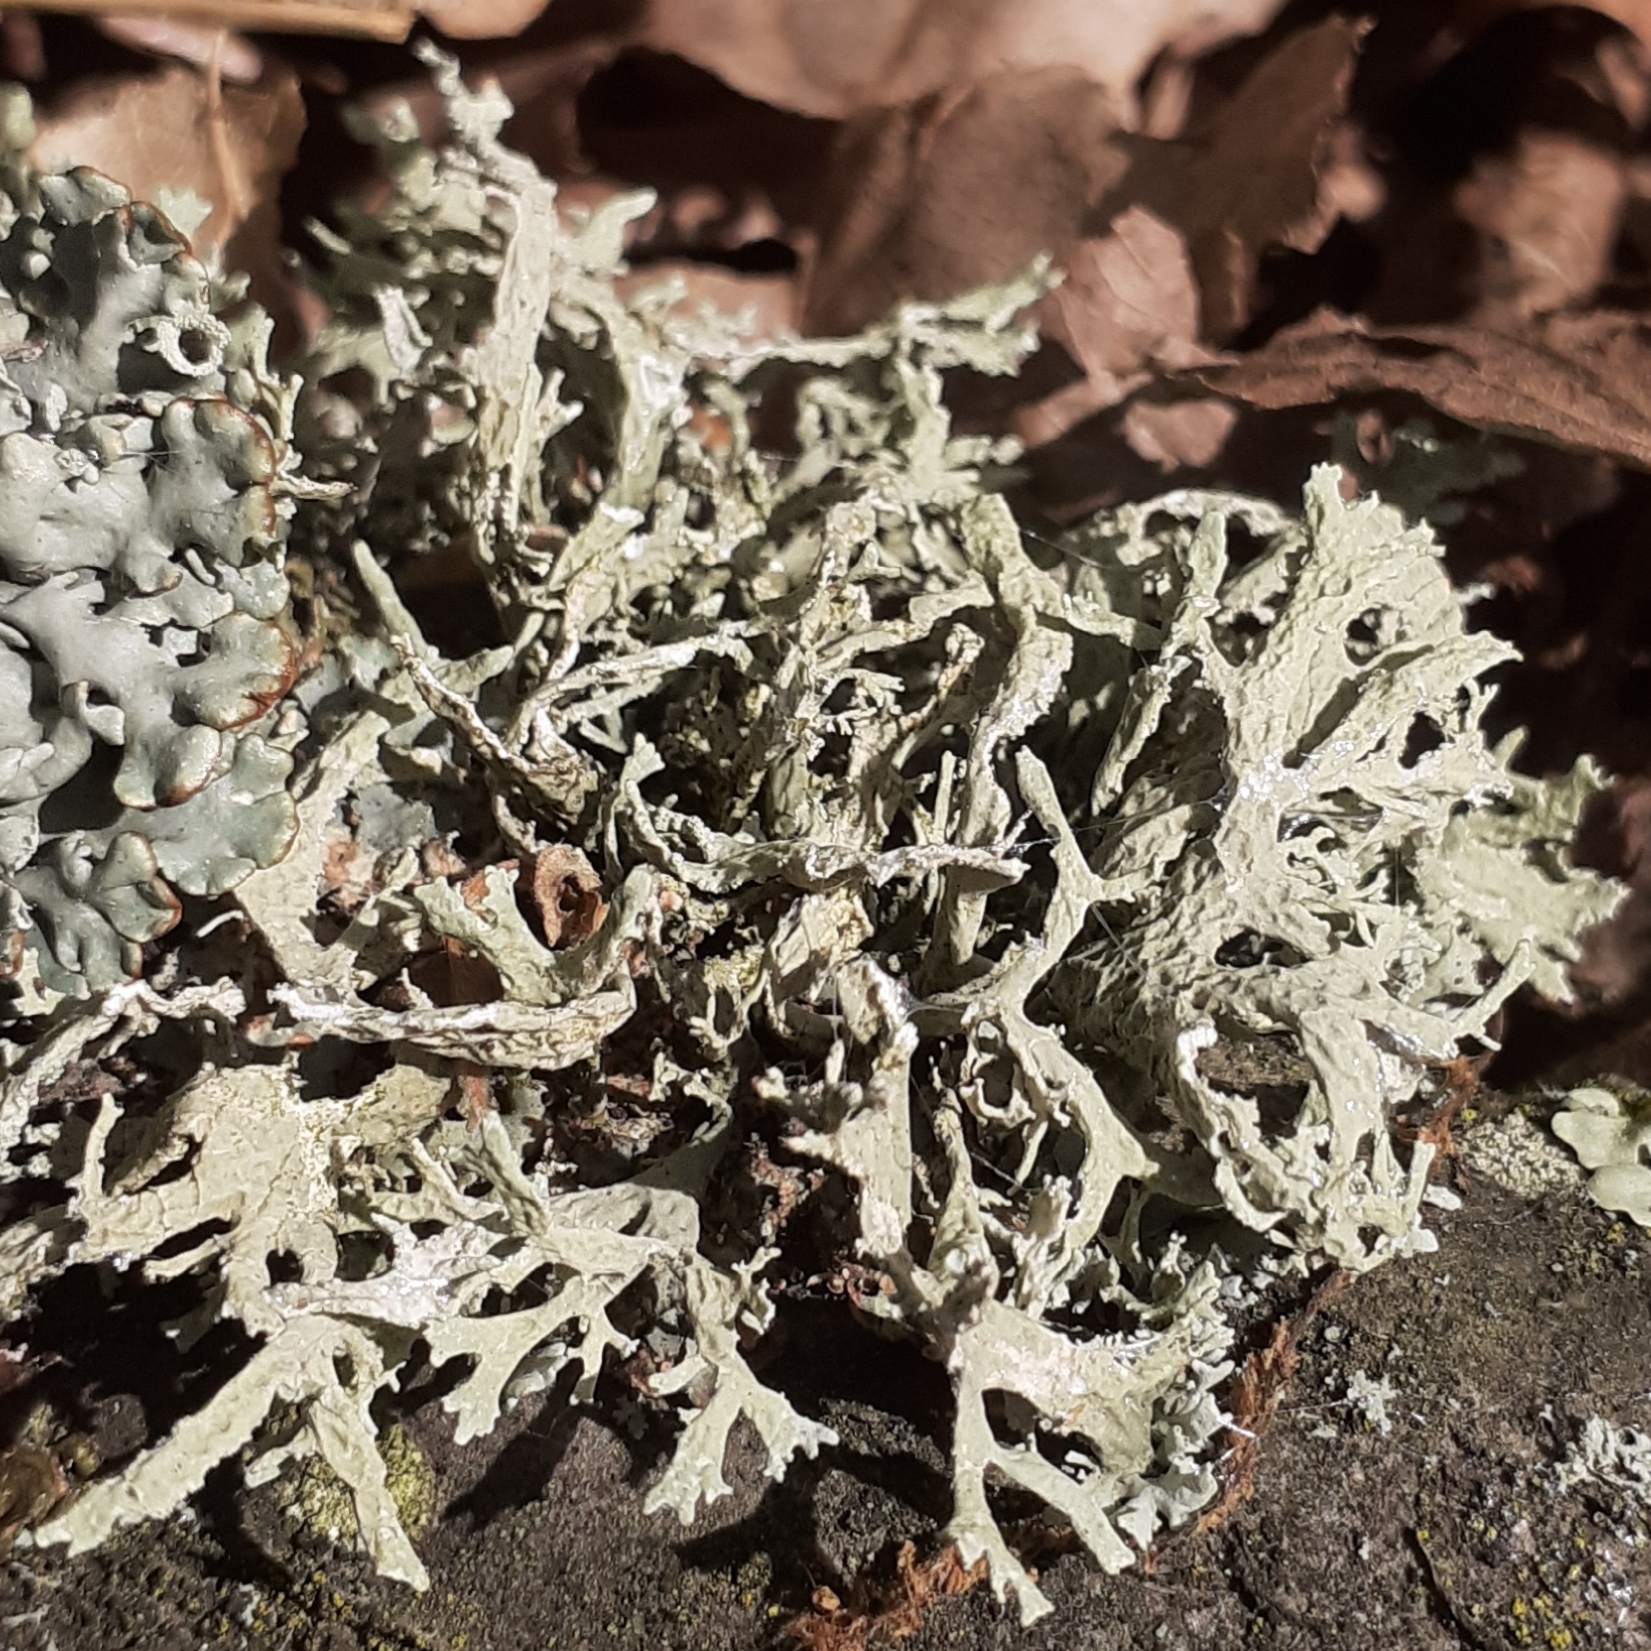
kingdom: Fungi
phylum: Ascomycota
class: Lecanoromycetes
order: Lecanorales
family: Parmeliaceae
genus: Evernia
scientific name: Evernia prunastri
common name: Oak moss
